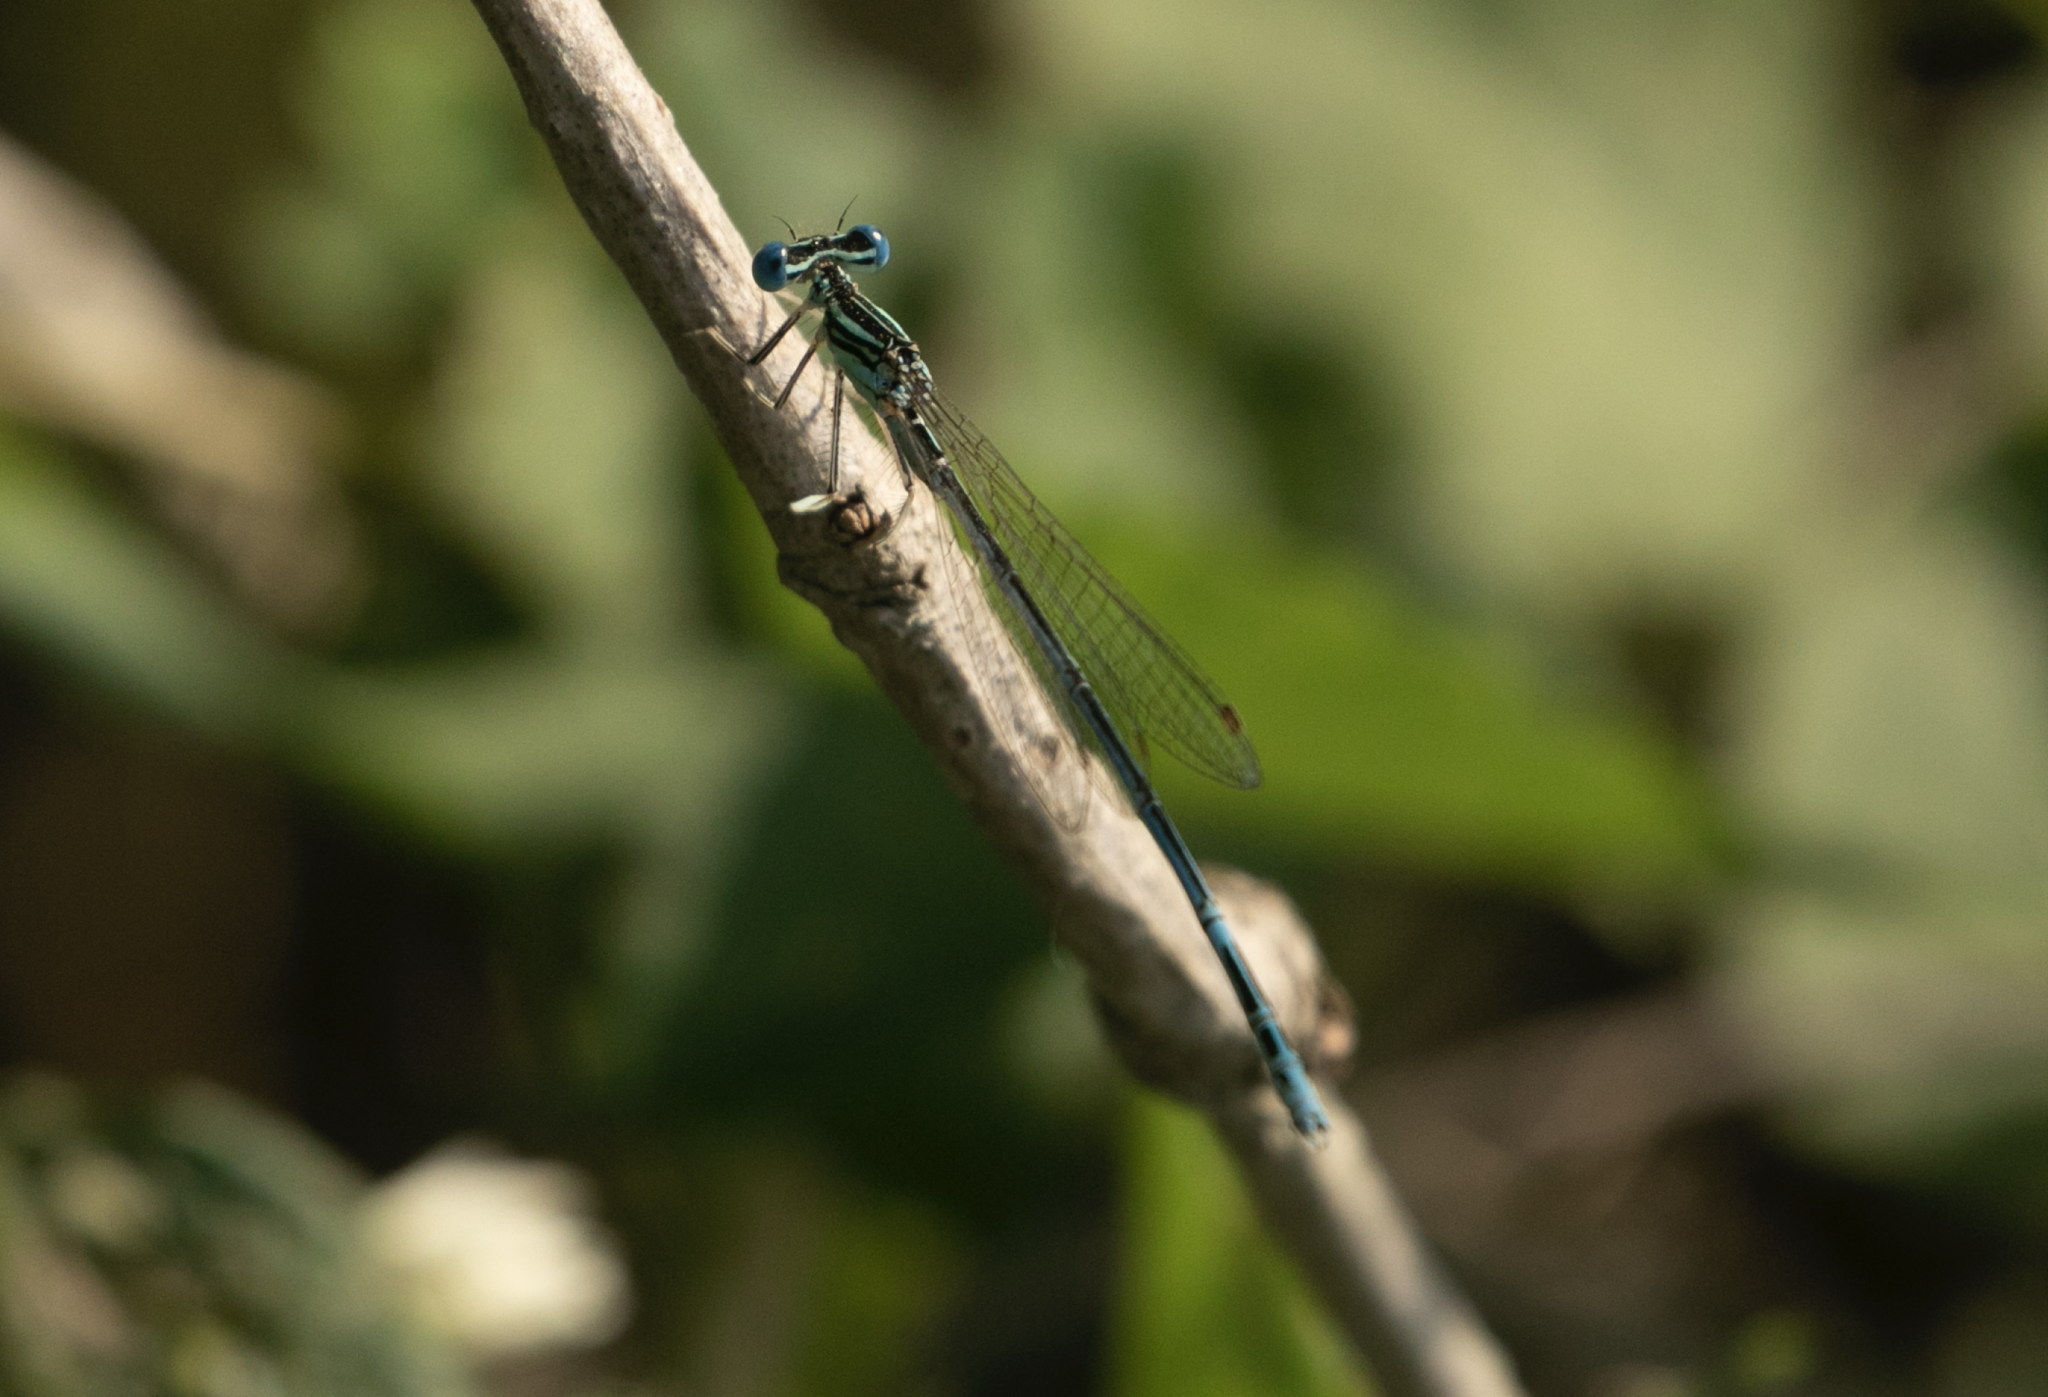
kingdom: Animalia
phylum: Arthropoda
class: Insecta
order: Odonata
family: Platycnemididae
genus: Platycnemis
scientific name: Platycnemis pennipes
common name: White-legged damselfly
